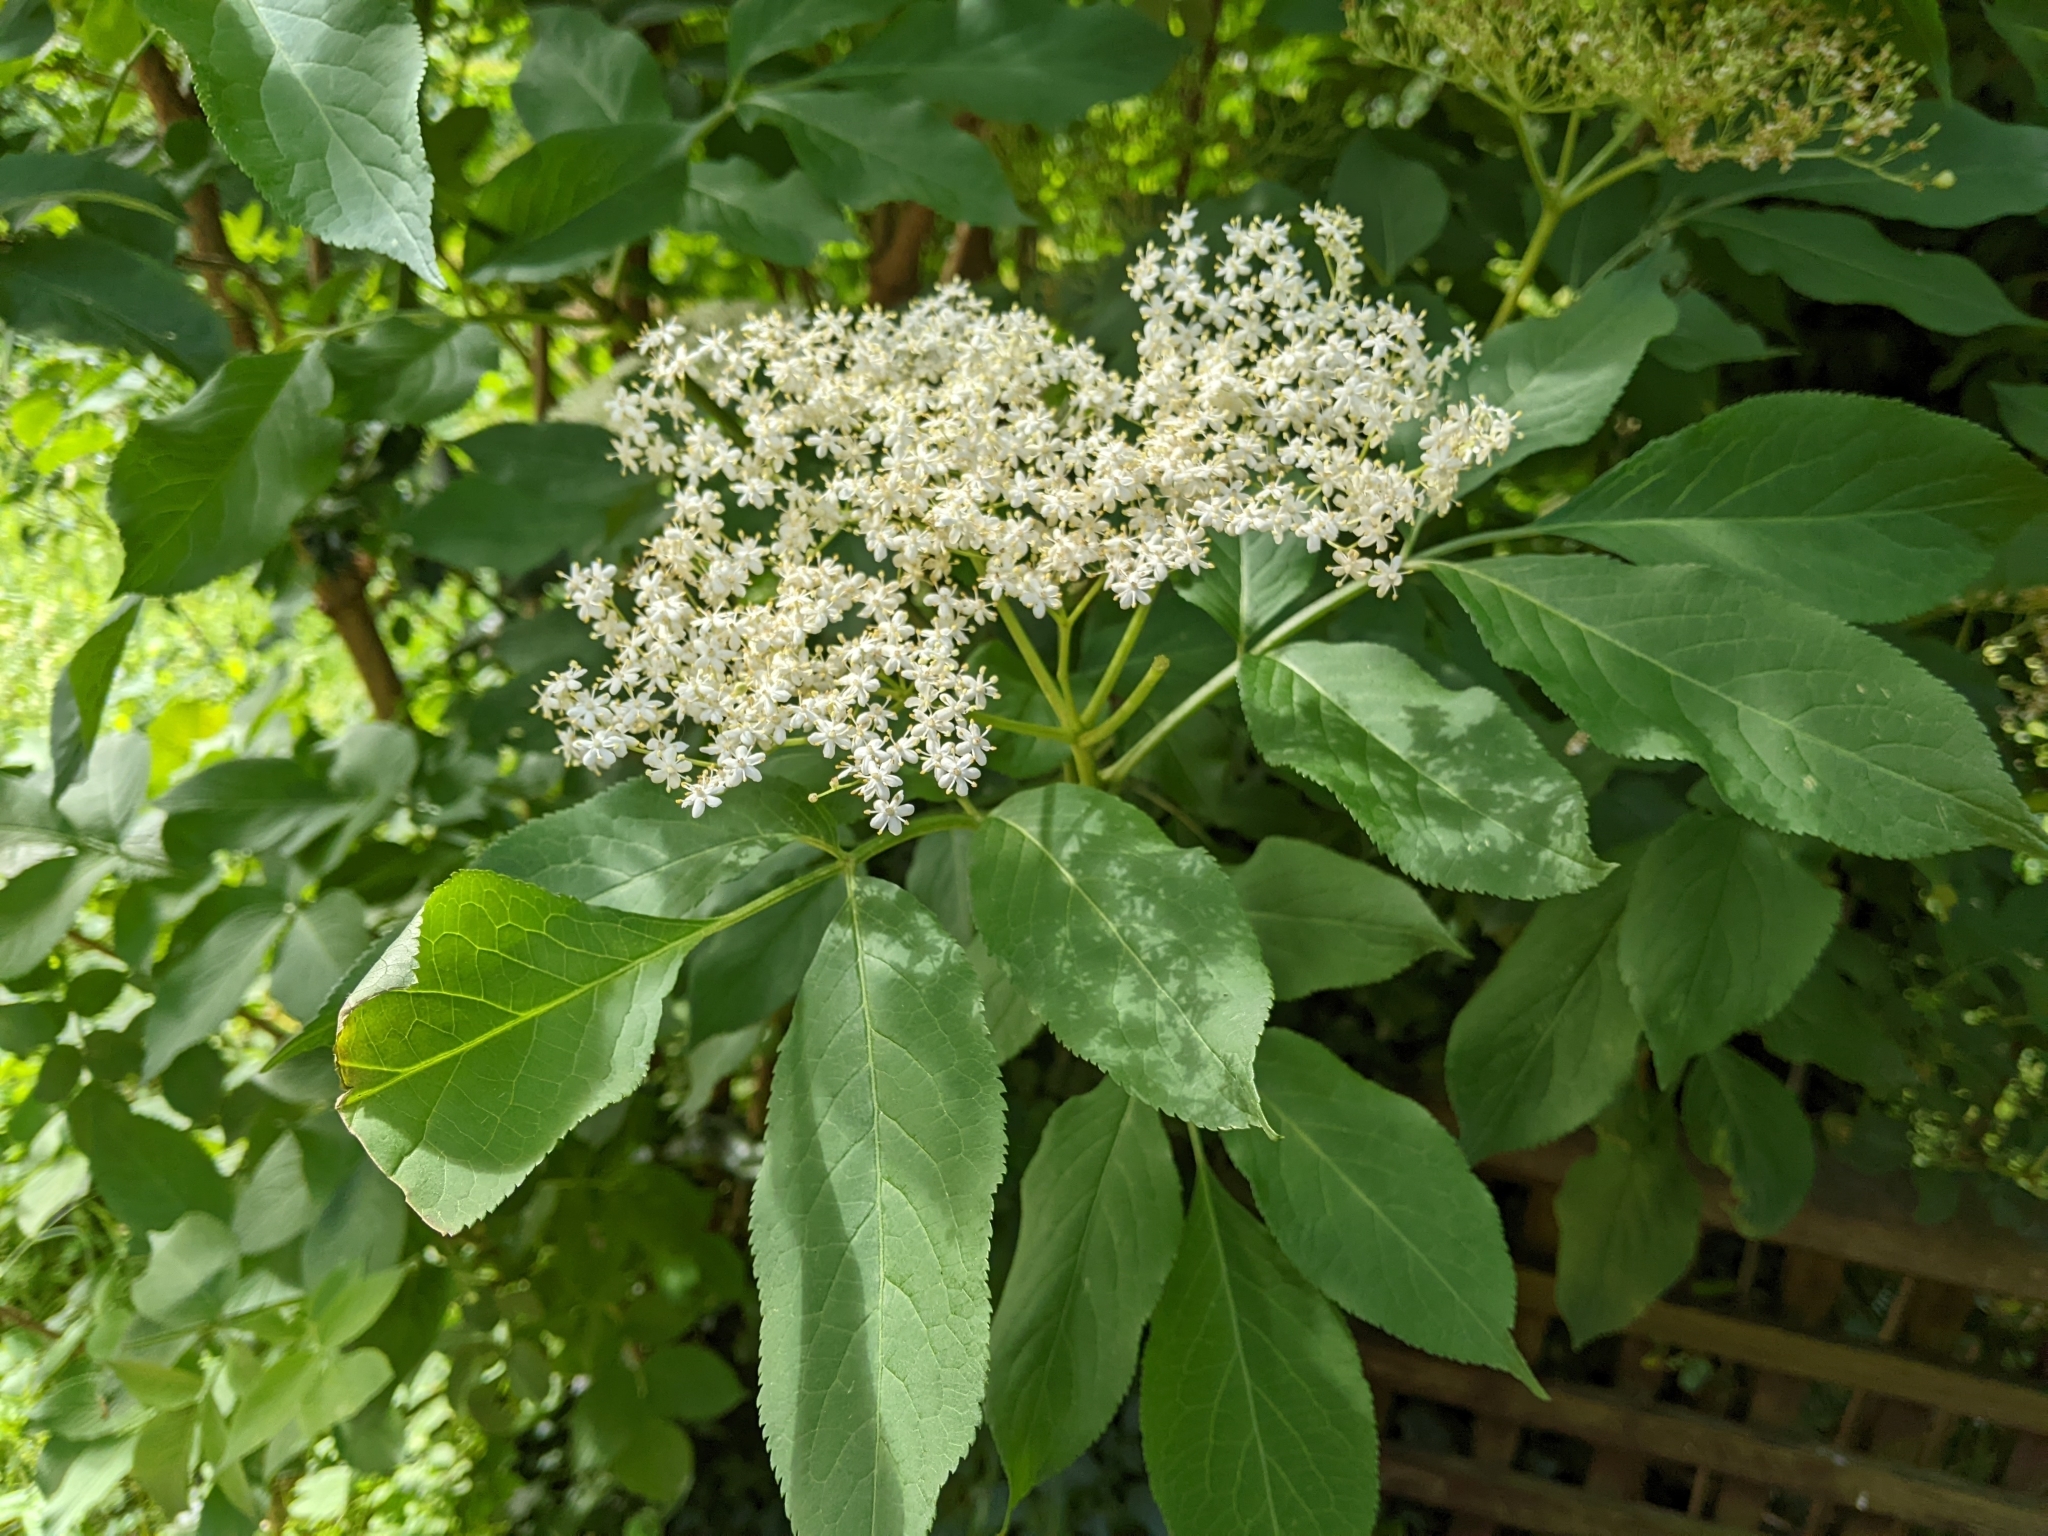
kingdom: Plantae
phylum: Tracheophyta
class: Magnoliopsida
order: Dipsacales
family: Viburnaceae
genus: Sambucus
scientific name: Sambucus nigra
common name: Elder
